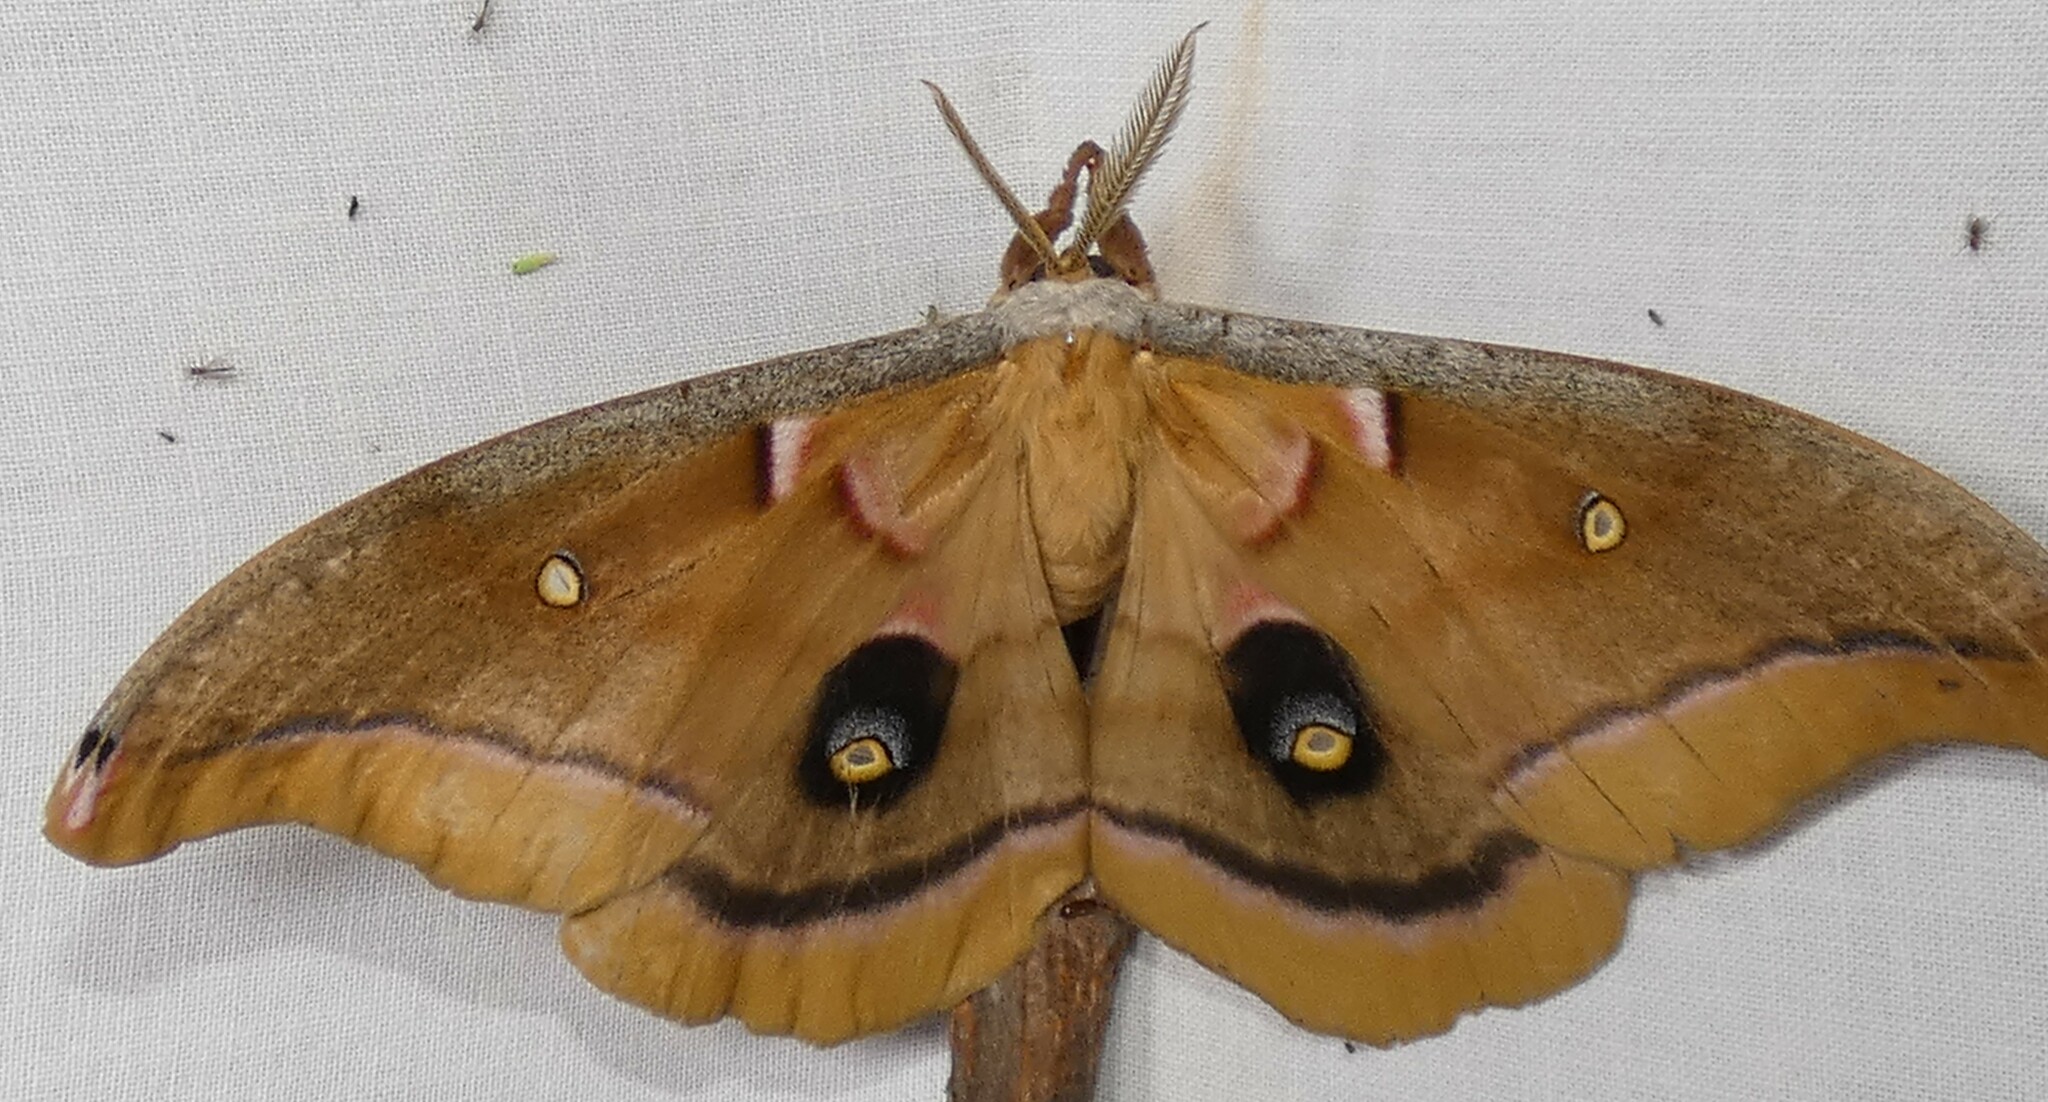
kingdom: Animalia
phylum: Arthropoda
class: Insecta
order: Lepidoptera
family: Saturniidae
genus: Antheraea
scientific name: Antheraea polyphemus
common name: Polyphemus moth
